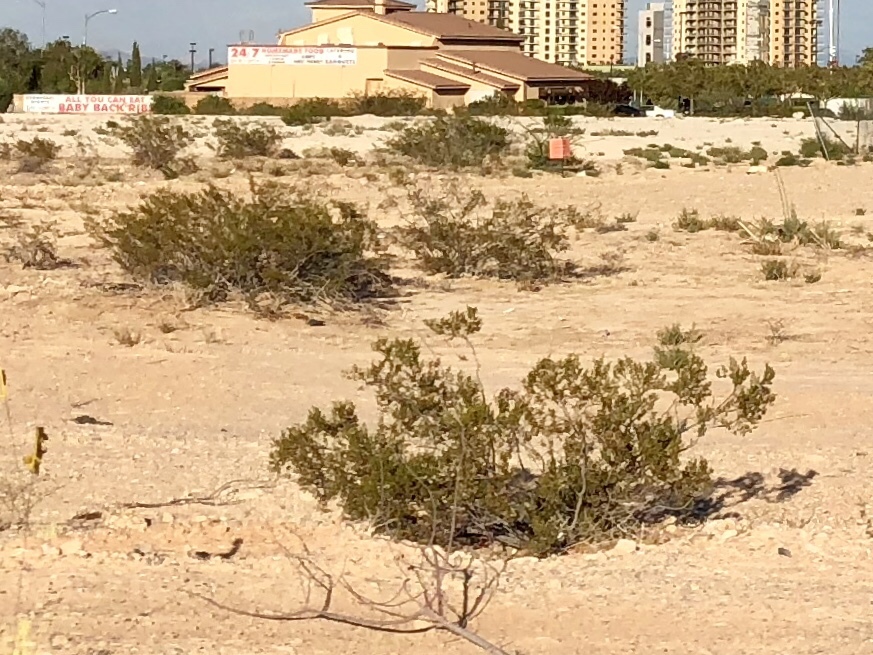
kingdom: Plantae
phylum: Tracheophyta
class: Magnoliopsida
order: Zygophyllales
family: Zygophyllaceae
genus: Larrea
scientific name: Larrea tridentata
